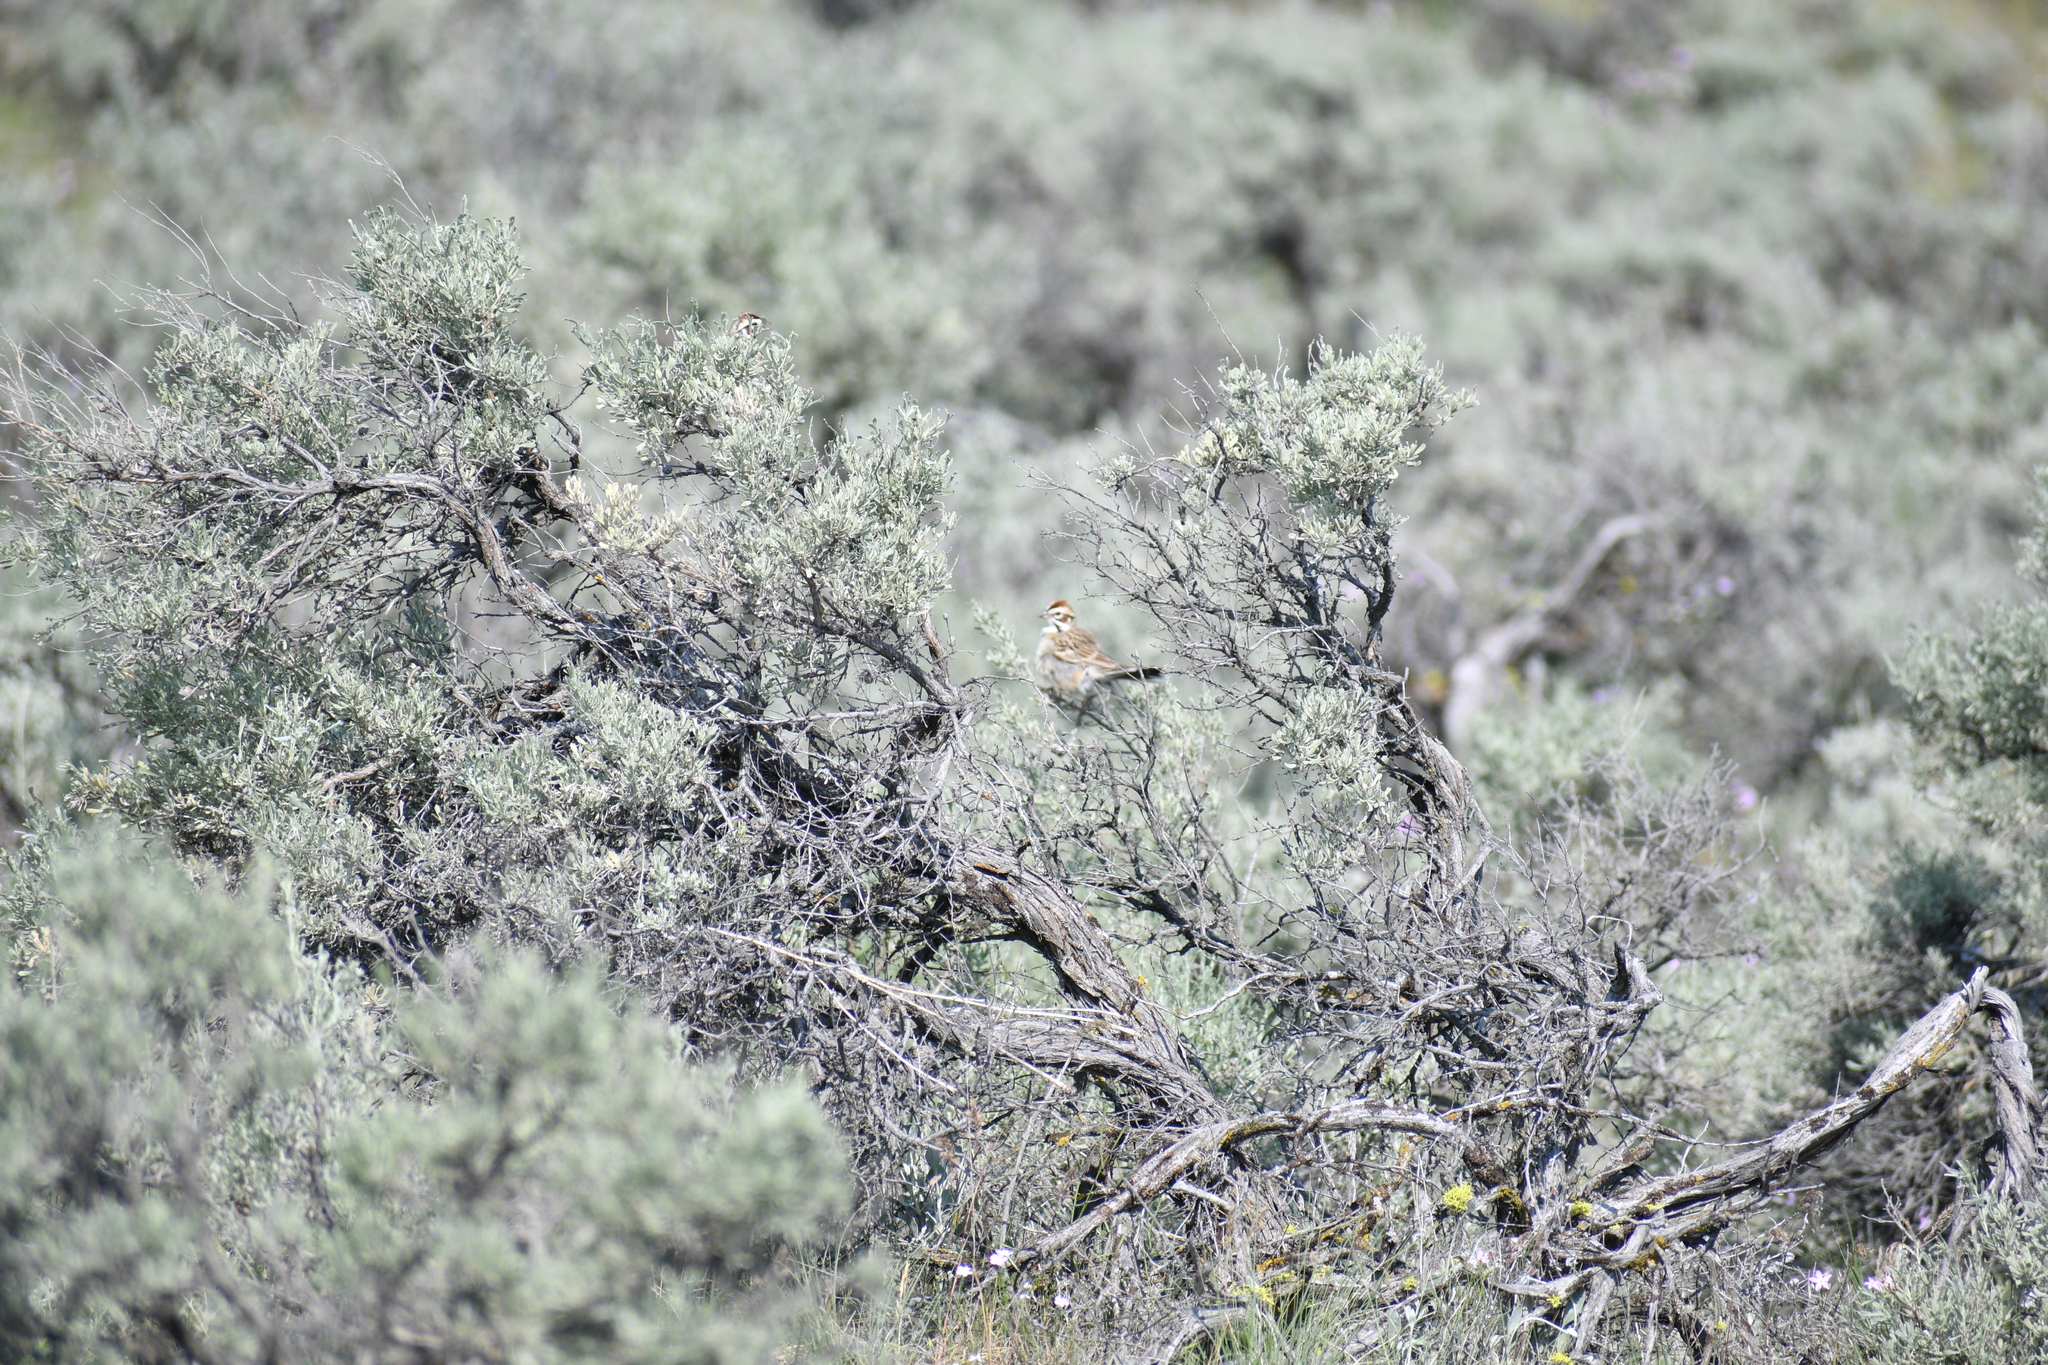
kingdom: Animalia
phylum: Chordata
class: Aves
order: Passeriformes
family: Passerellidae
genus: Chondestes
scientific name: Chondestes grammacus
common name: Lark sparrow
